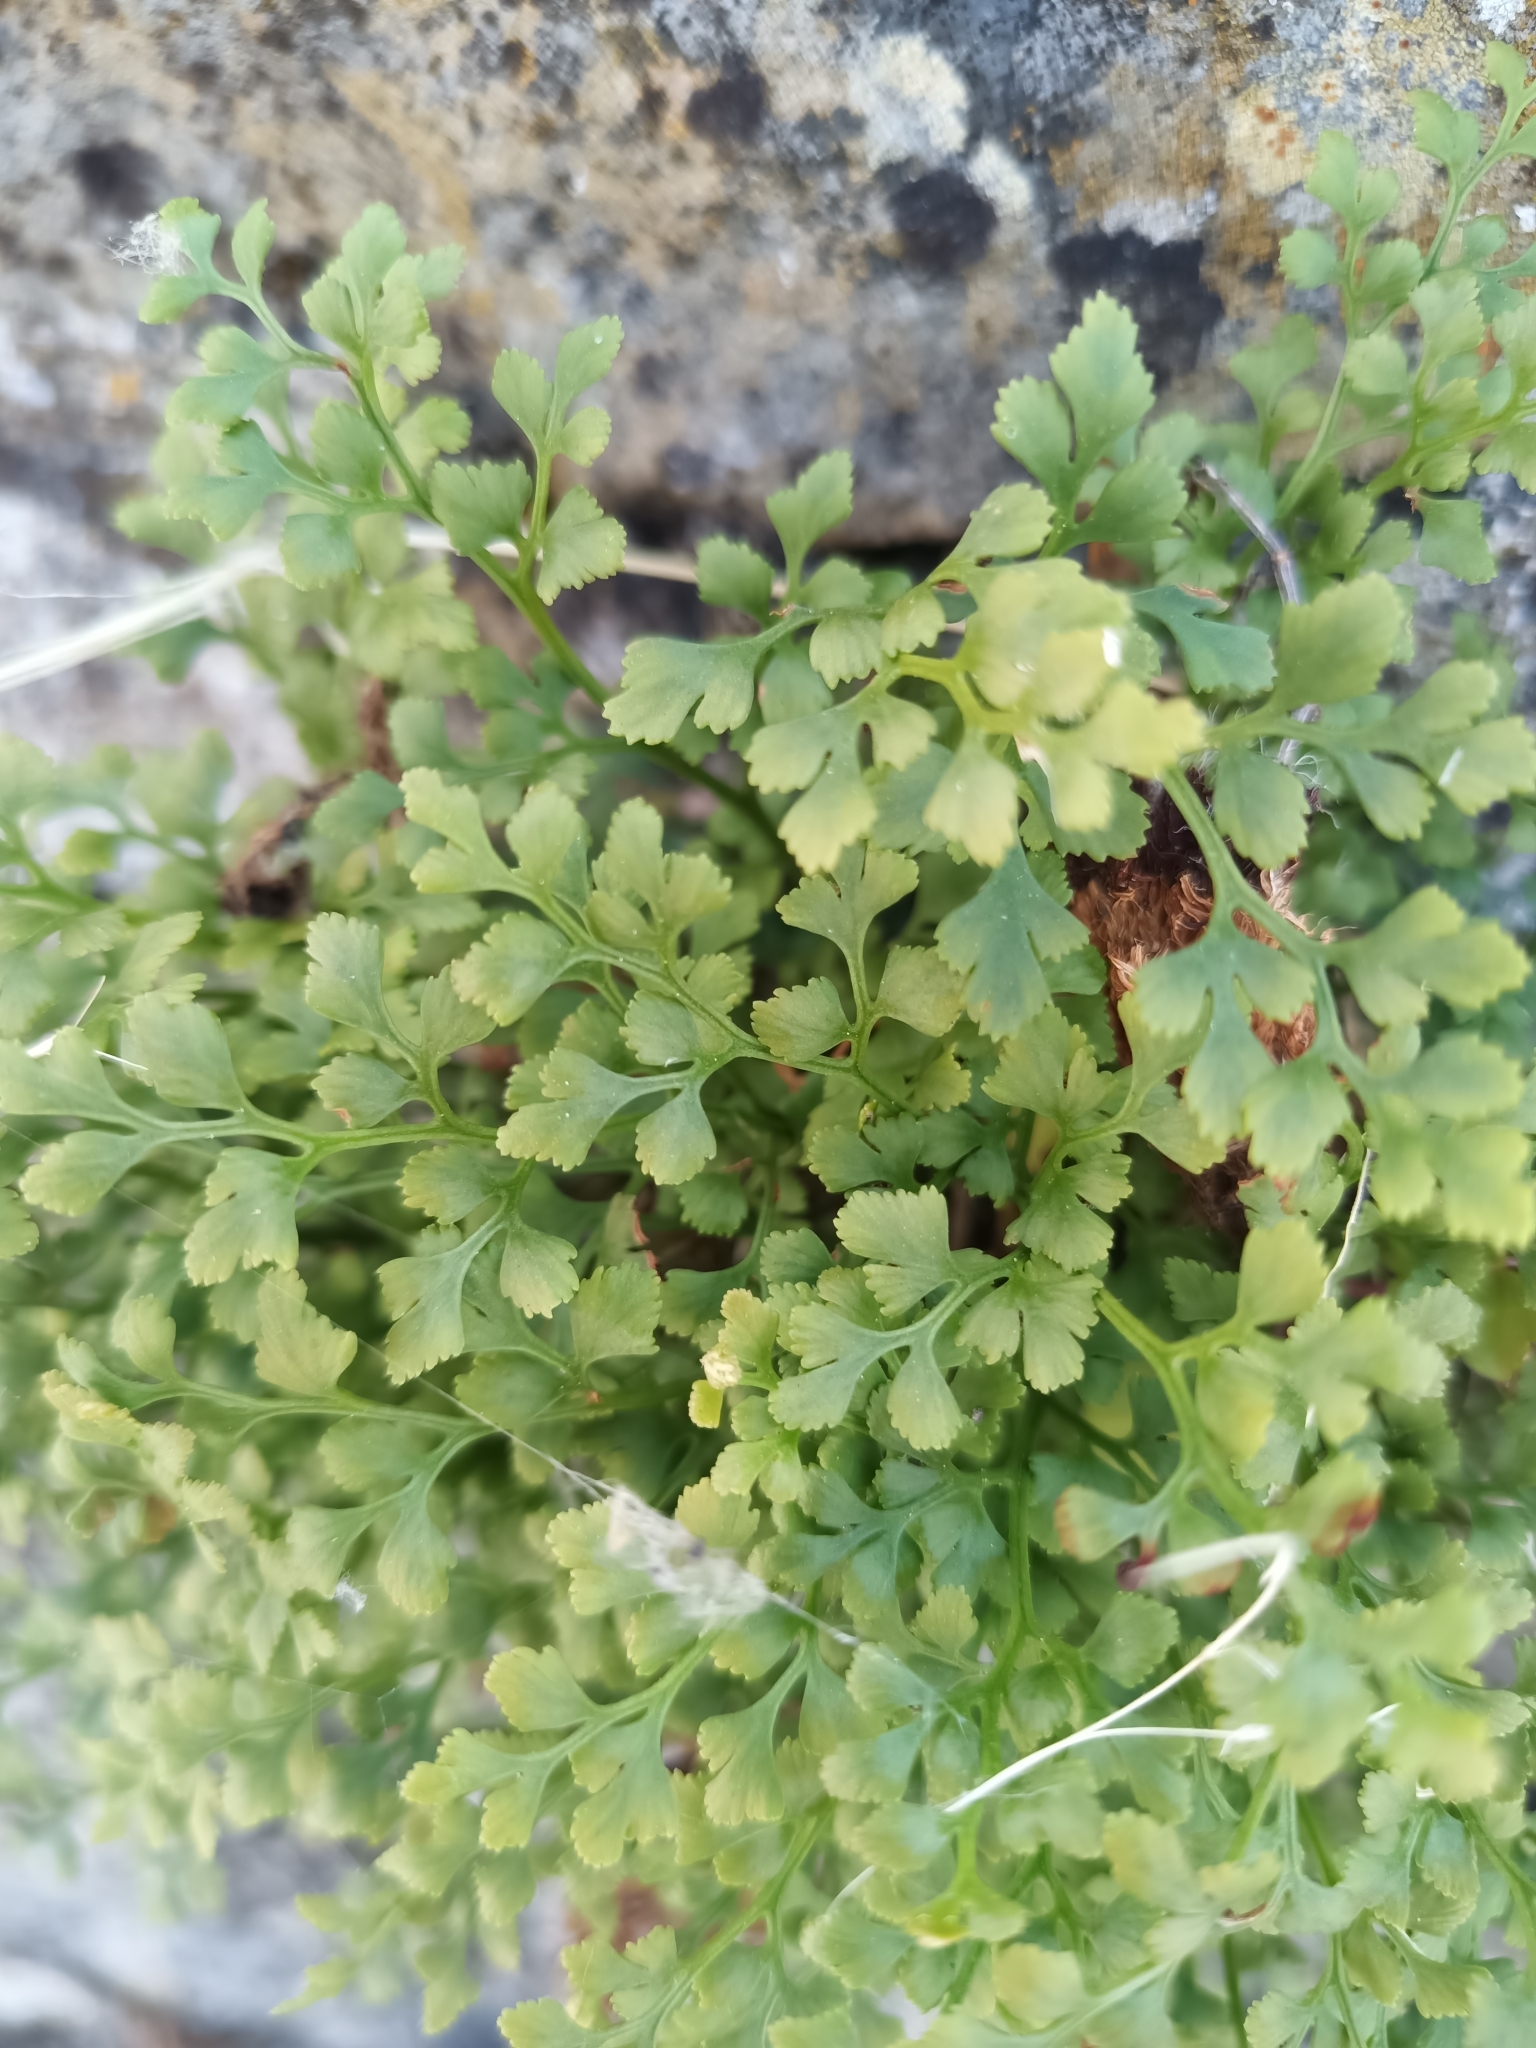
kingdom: Plantae
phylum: Tracheophyta
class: Polypodiopsida
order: Polypodiales
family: Aspleniaceae
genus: Asplenium
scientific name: Asplenium ruta-muraria
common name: Wall-rue
